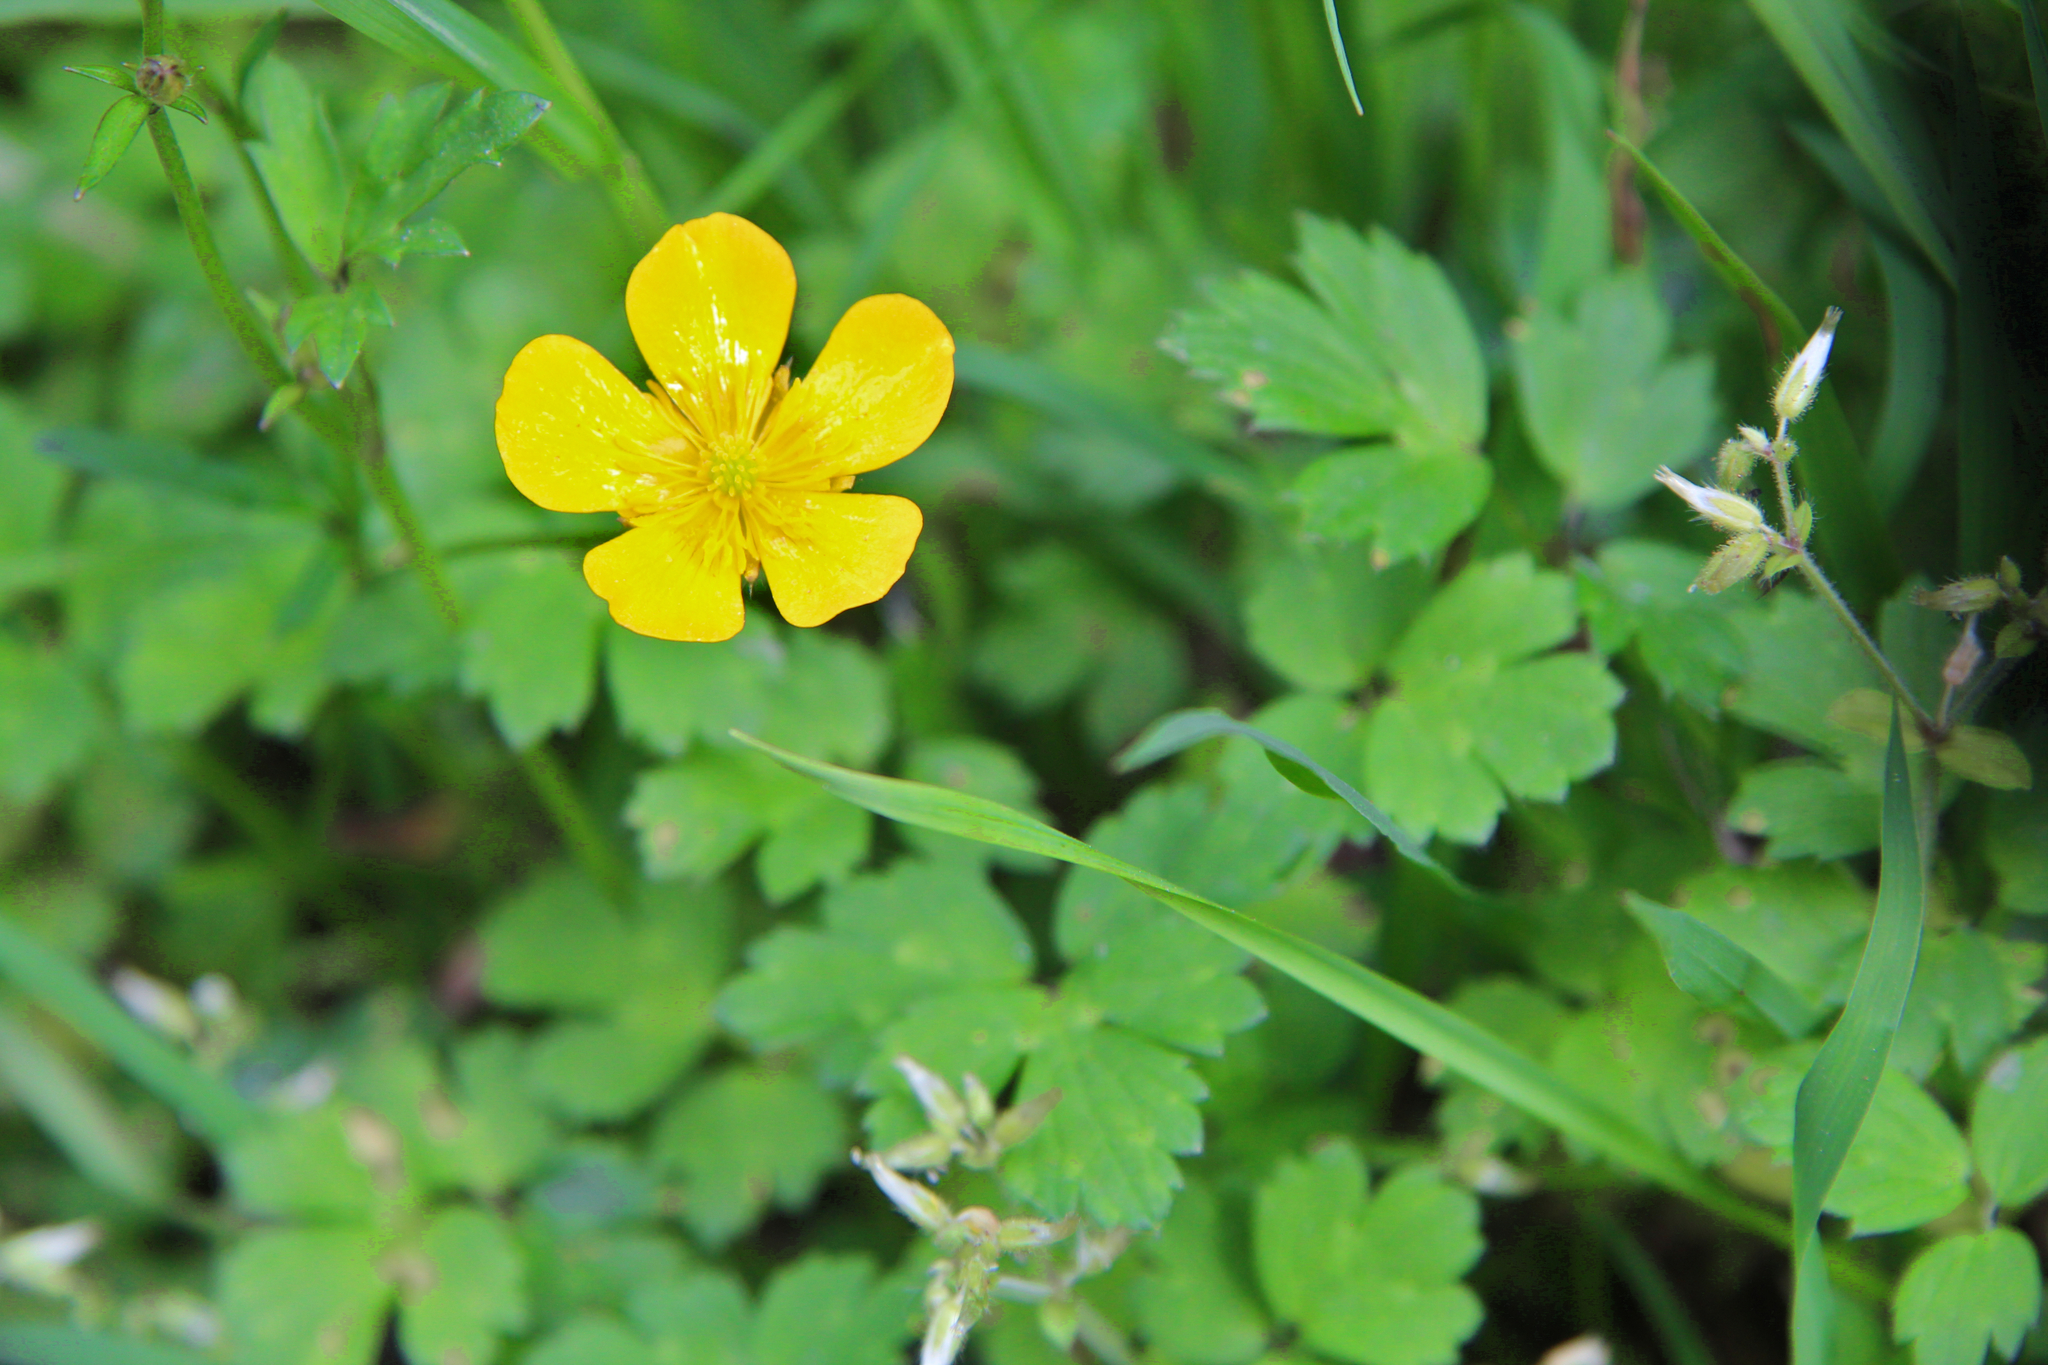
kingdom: Plantae
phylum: Tracheophyta
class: Magnoliopsida
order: Ranunculales
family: Ranunculaceae
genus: Ranunculus
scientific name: Ranunculus repens
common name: Creeping buttercup
